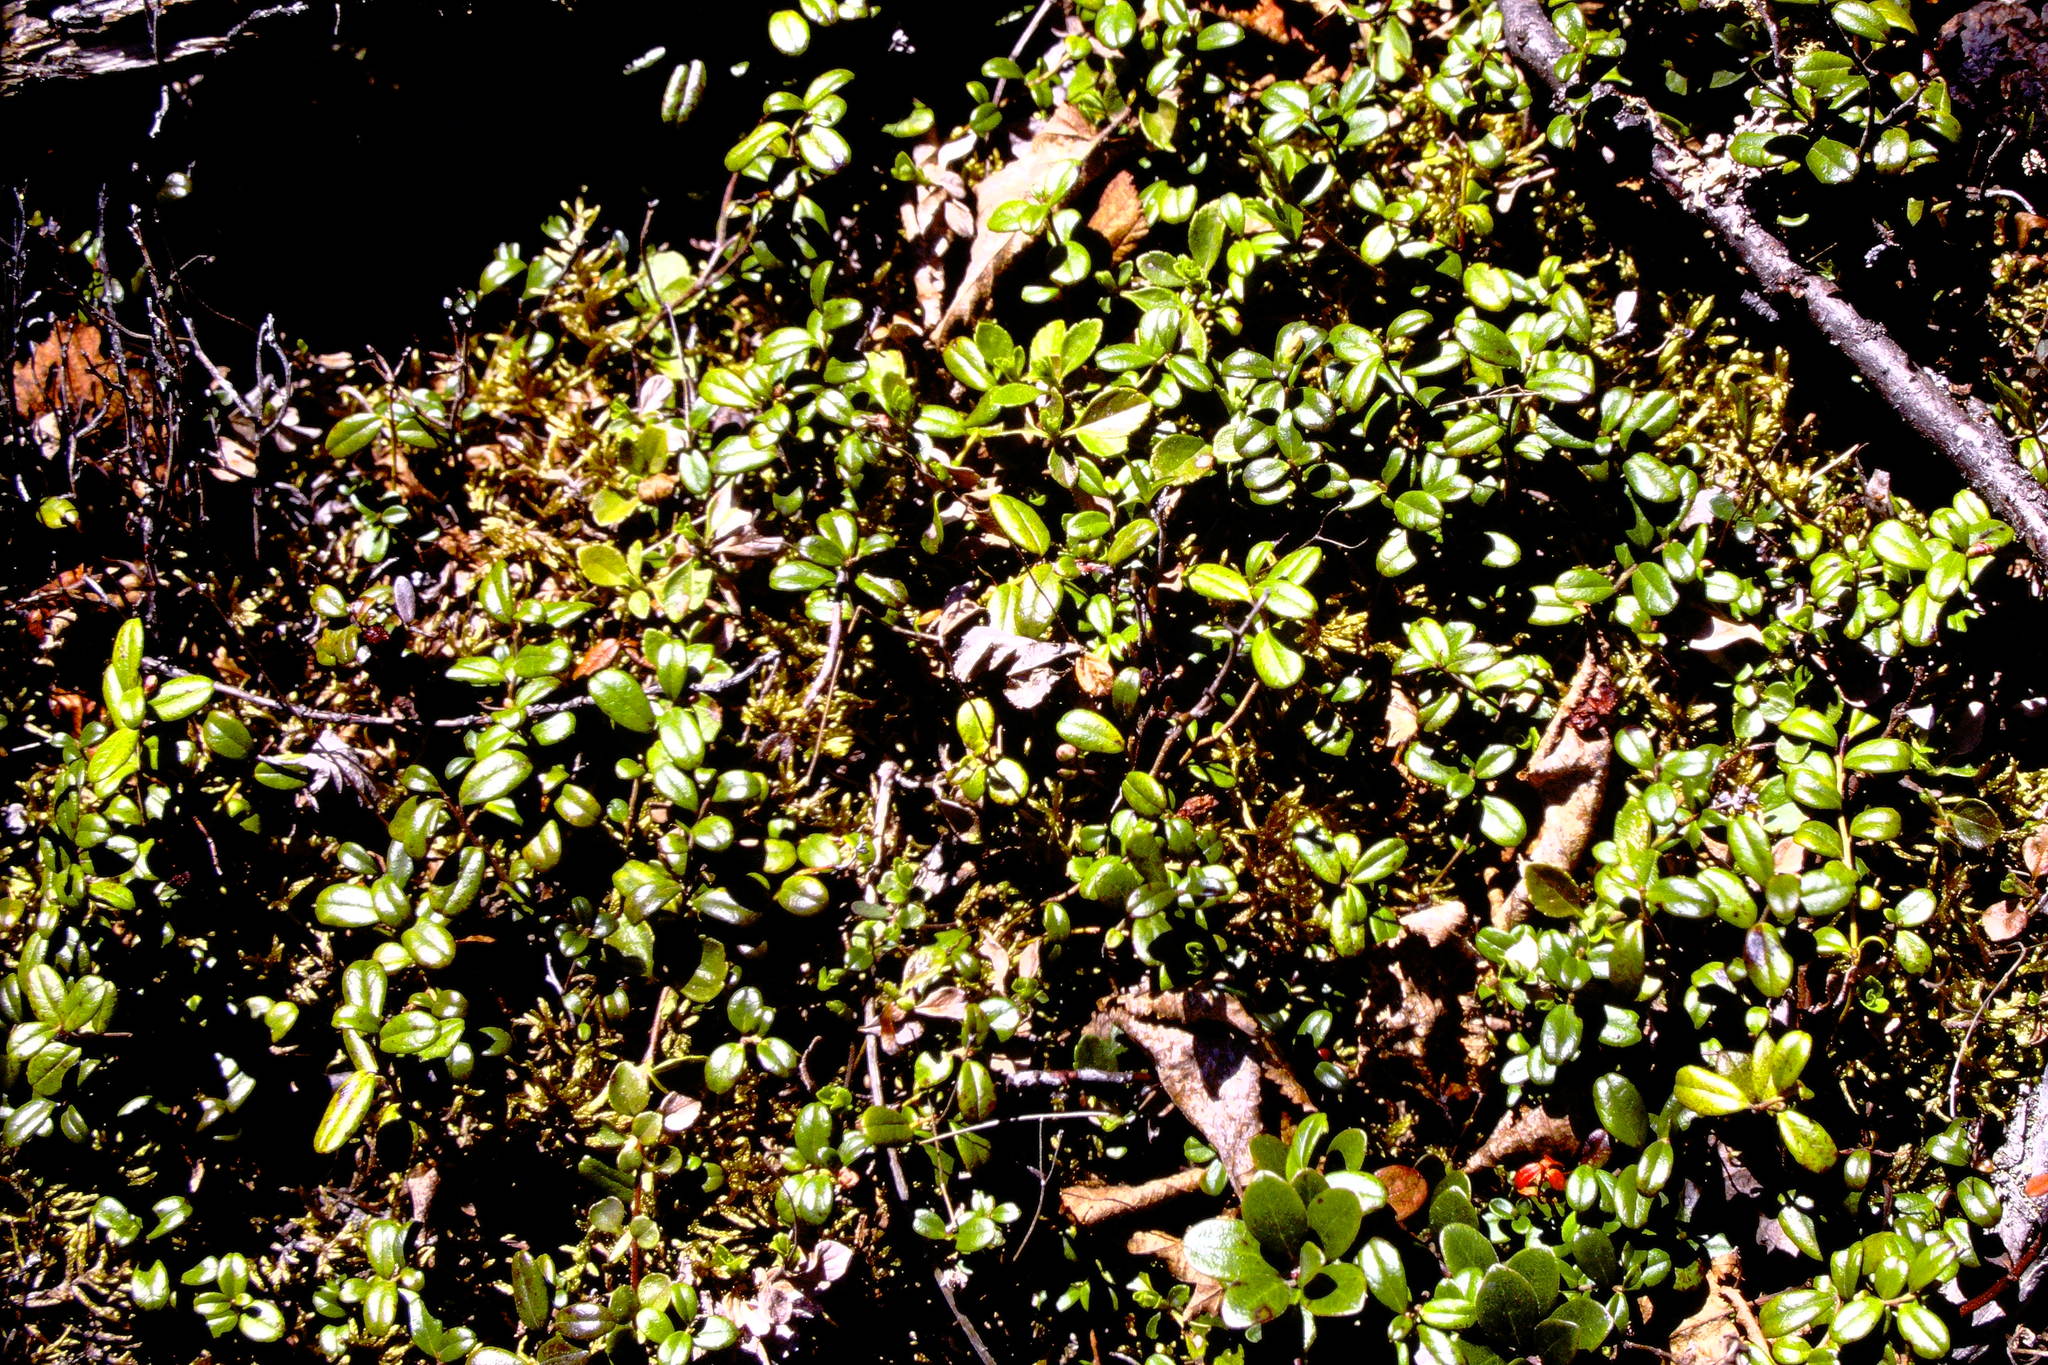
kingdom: Plantae
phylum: Tracheophyta
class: Magnoliopsida
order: Ericales
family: Ericaceae
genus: Vaccinium
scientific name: Vaccinium vitis-idaea
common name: Cowberry
